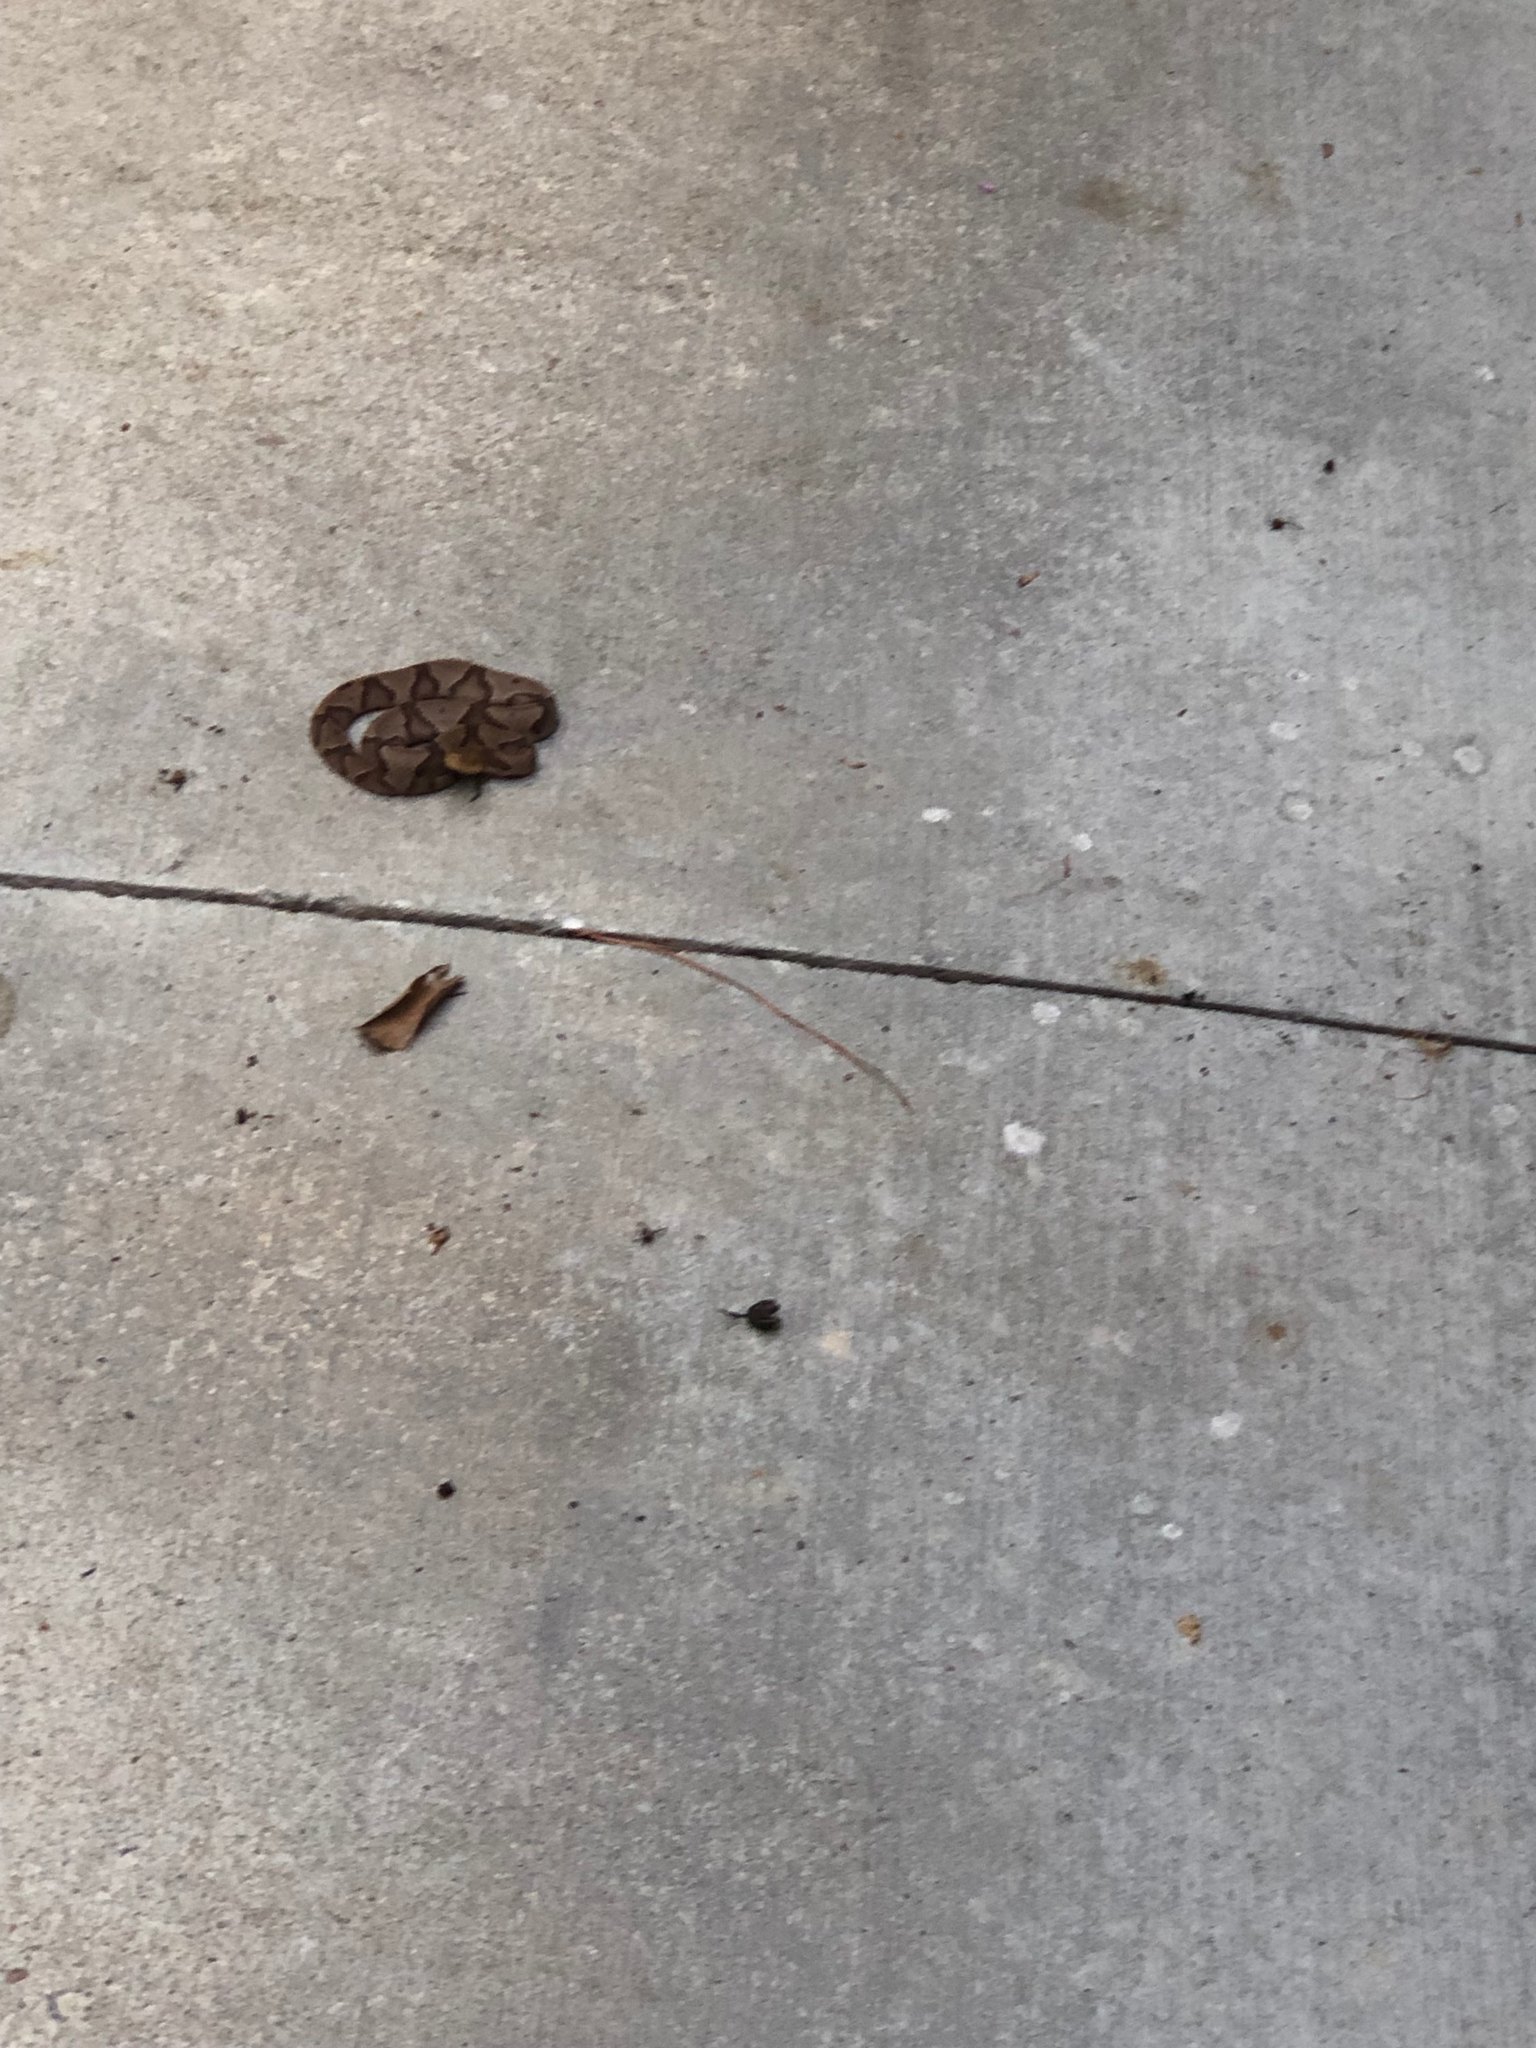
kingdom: Animalia
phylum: Chordata
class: Squamata
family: Viperidae
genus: Agkistrodon
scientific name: Agkistrodon contortrix
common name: Northern copperhead
